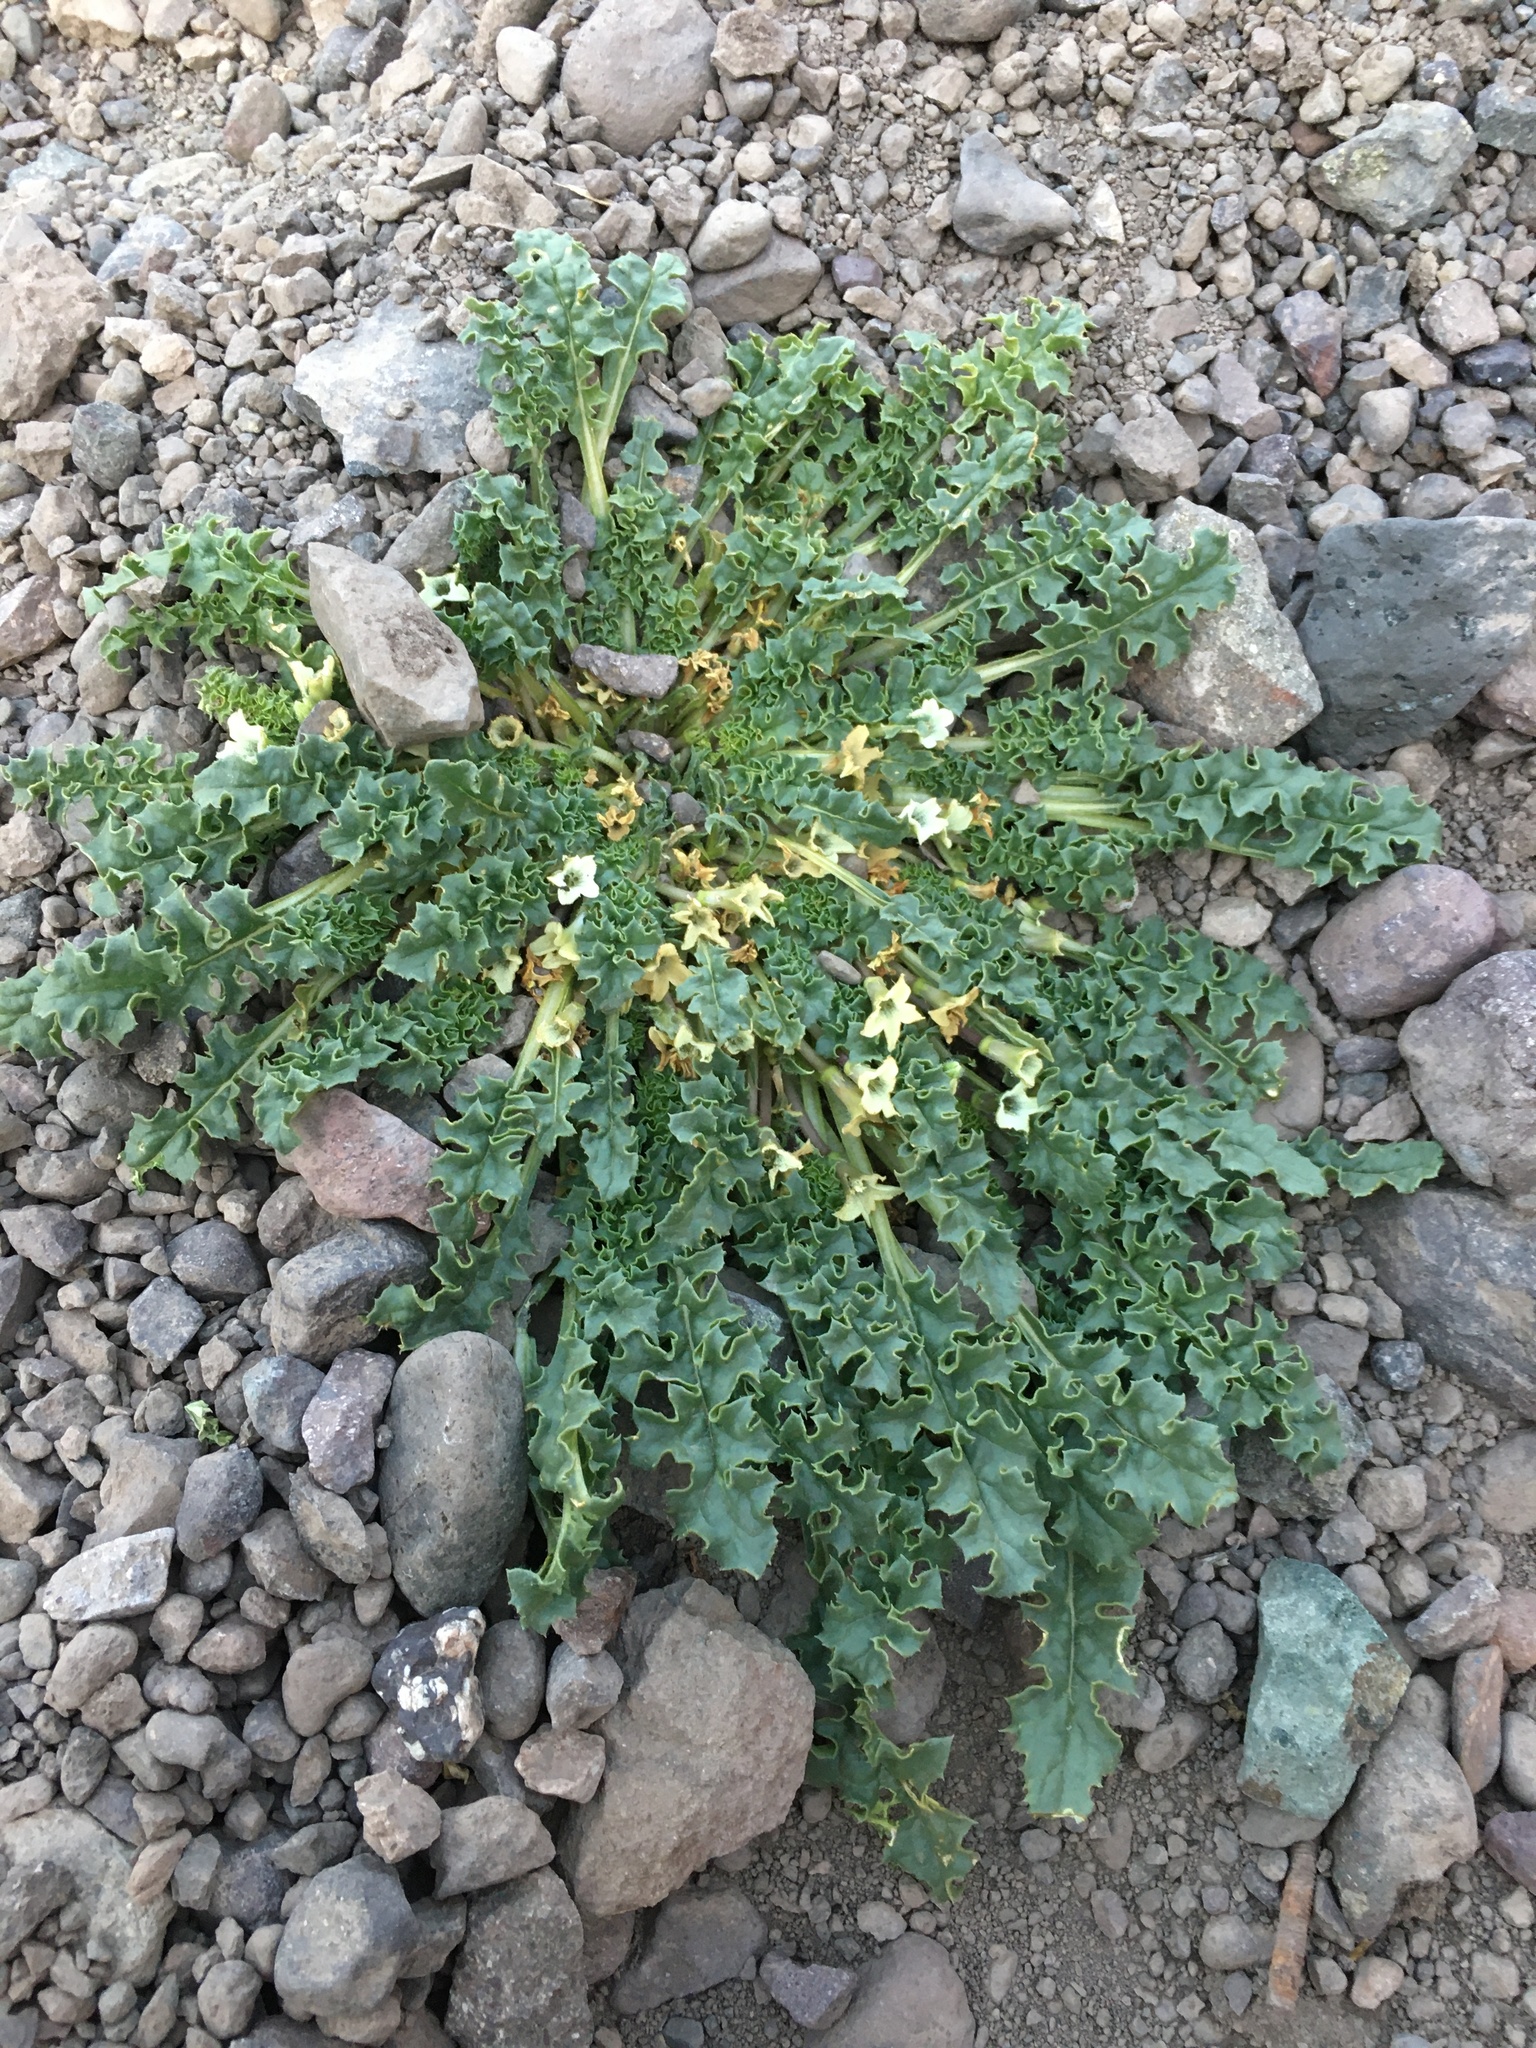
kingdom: Plantae
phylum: Tracheophyta
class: Magnoliopsida
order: Solanales
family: Solanaceae
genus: Jaborosa
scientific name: Jaborosa caulescens
